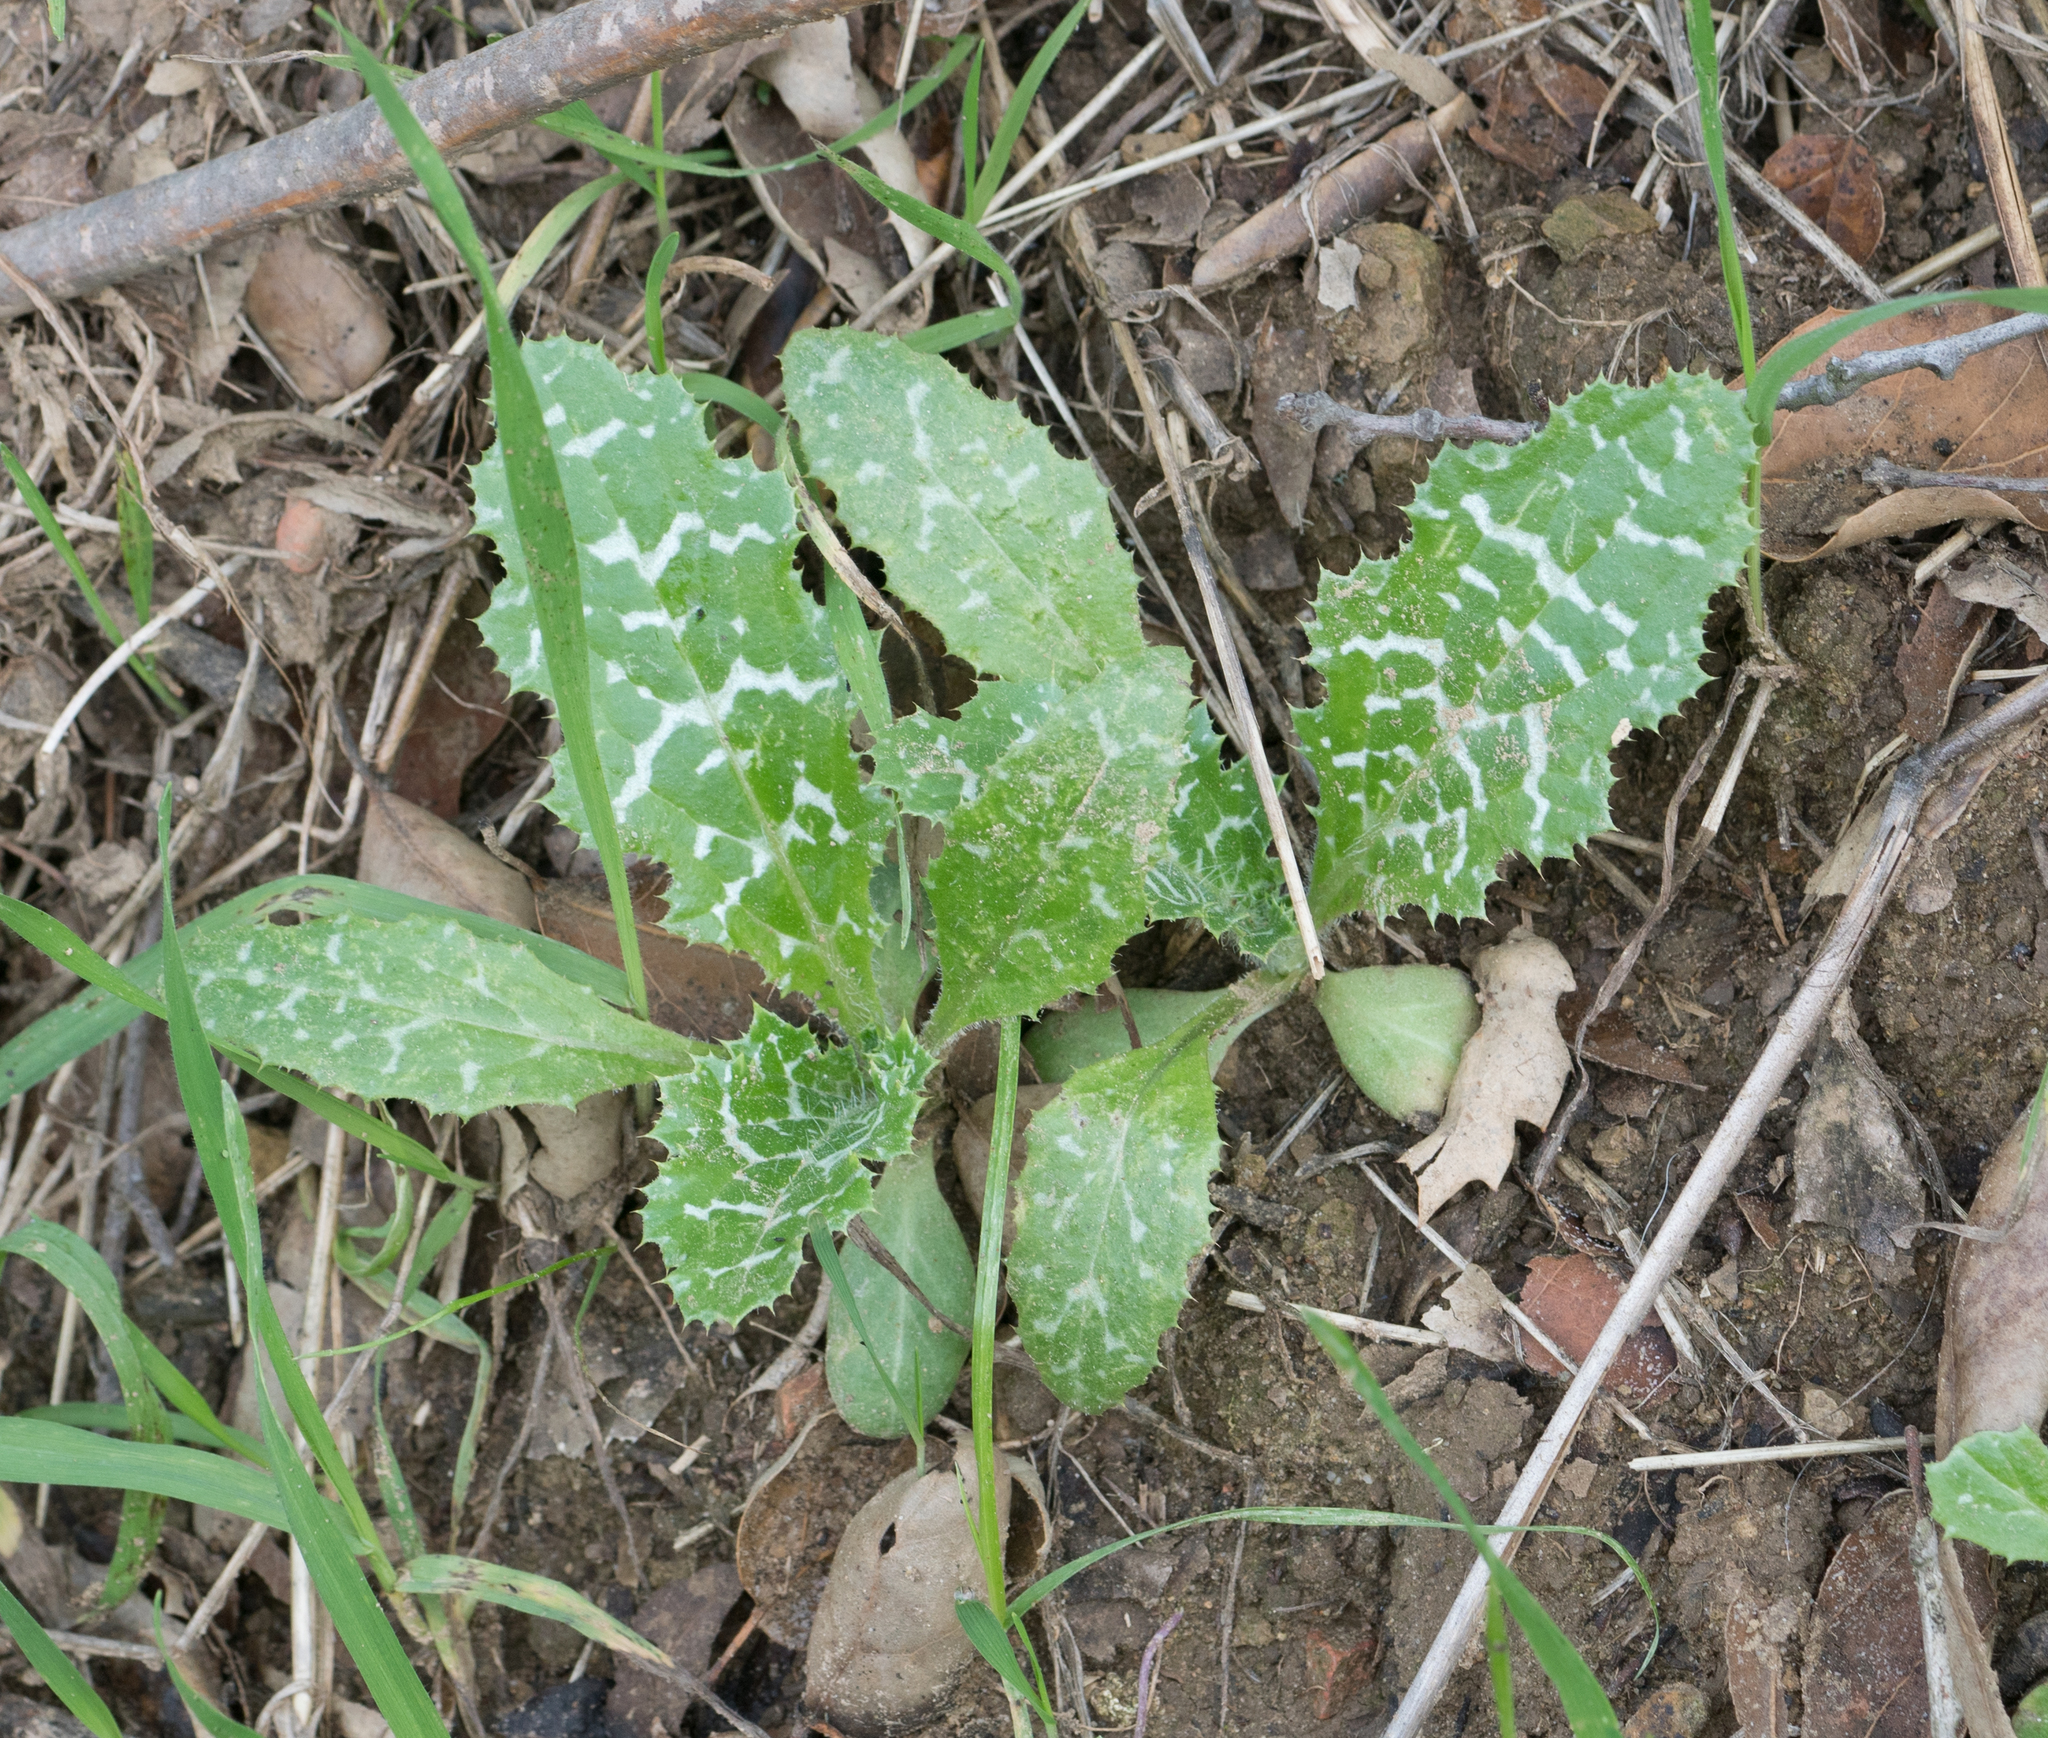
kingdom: Plantae
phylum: Tracheophyta
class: Magnoliopsida
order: Asterales
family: Asteraceae
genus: Silybum
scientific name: Silybum marianum
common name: Milk thistle
